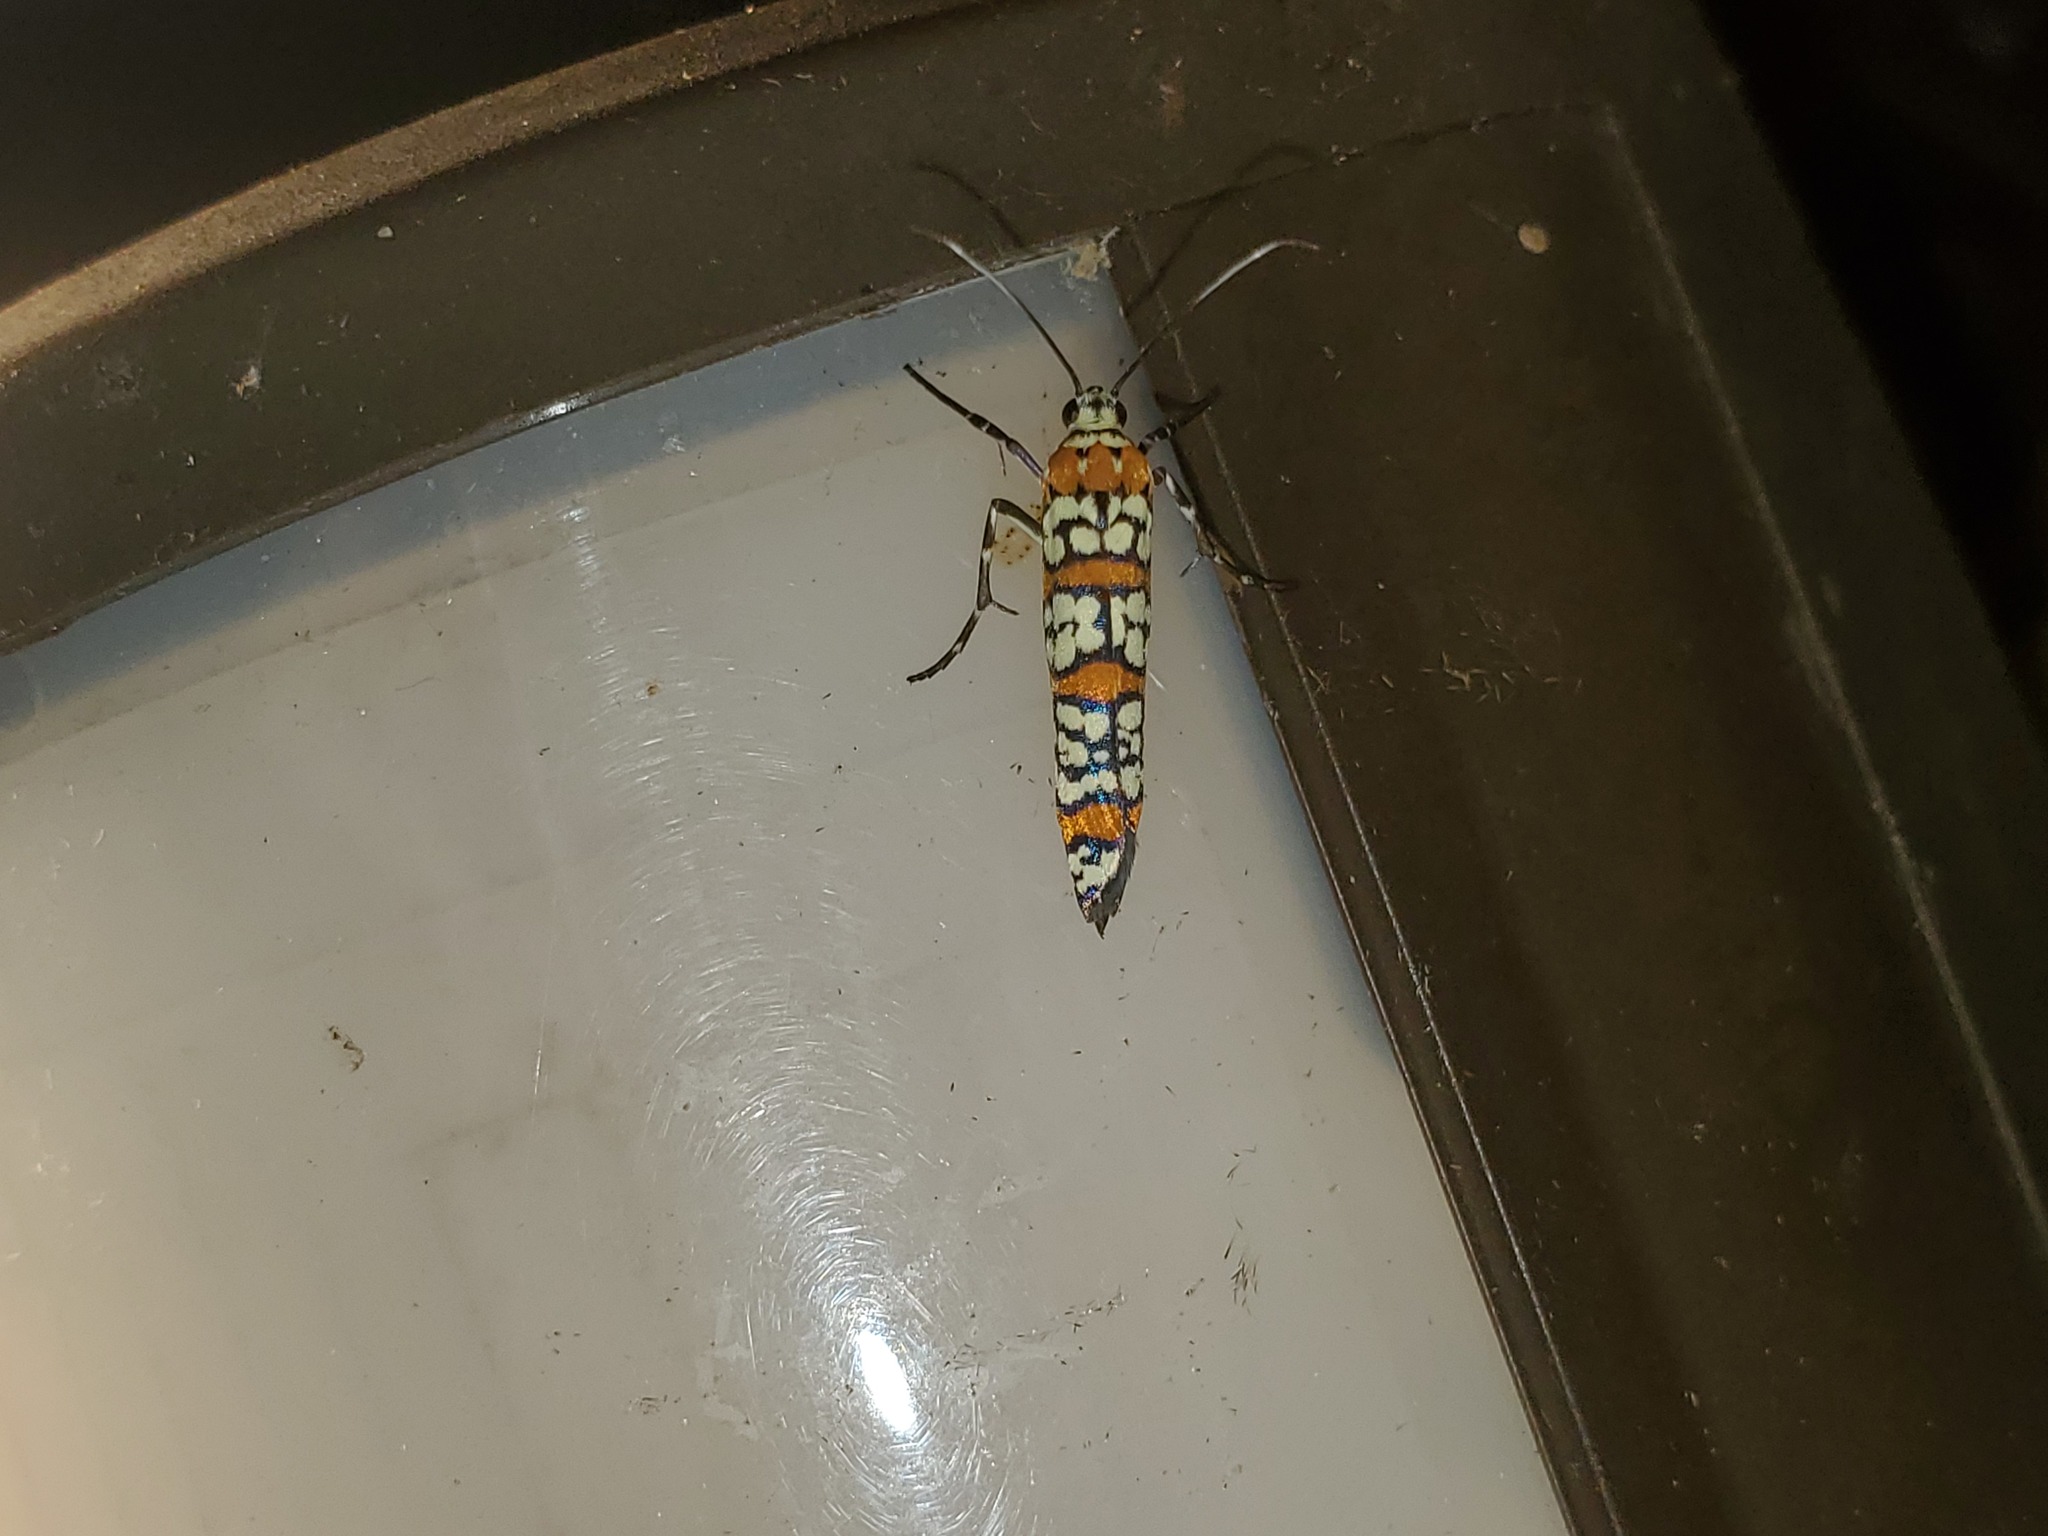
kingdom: Animalia
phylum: Arthropoda
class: Insecta
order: Lepidoptera
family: Attevidae
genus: Atteva
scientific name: Atteva punctella
